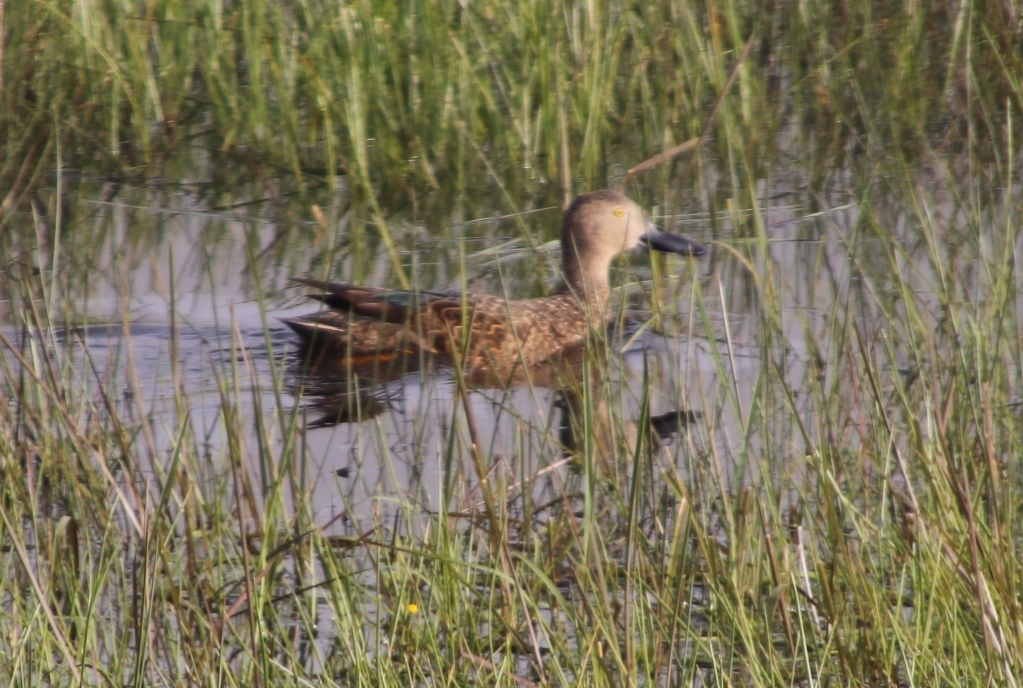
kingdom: Animalia
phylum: Chordata
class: Aves
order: Anseriformes
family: Anatidae
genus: Spatula
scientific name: Spatula smithii
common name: Cape shoveler
